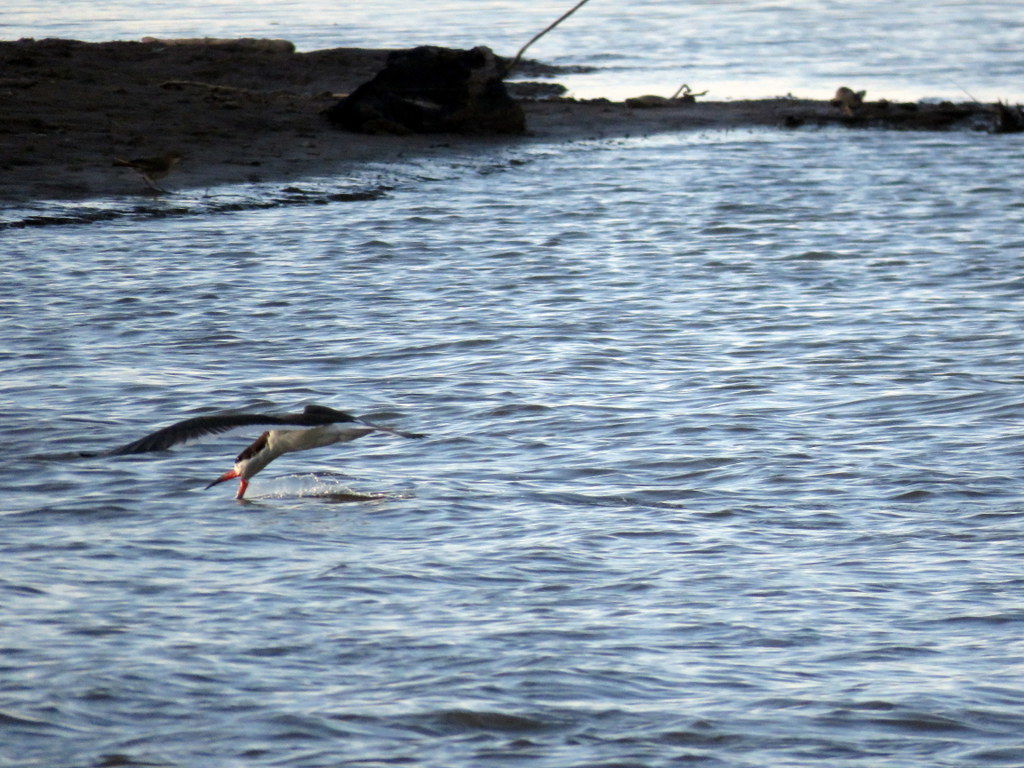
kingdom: Animalia
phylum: Chordata
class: Aves
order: Charadriiformes
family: Laridae
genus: Rynchops
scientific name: Rynchops niger
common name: Black skimmer
